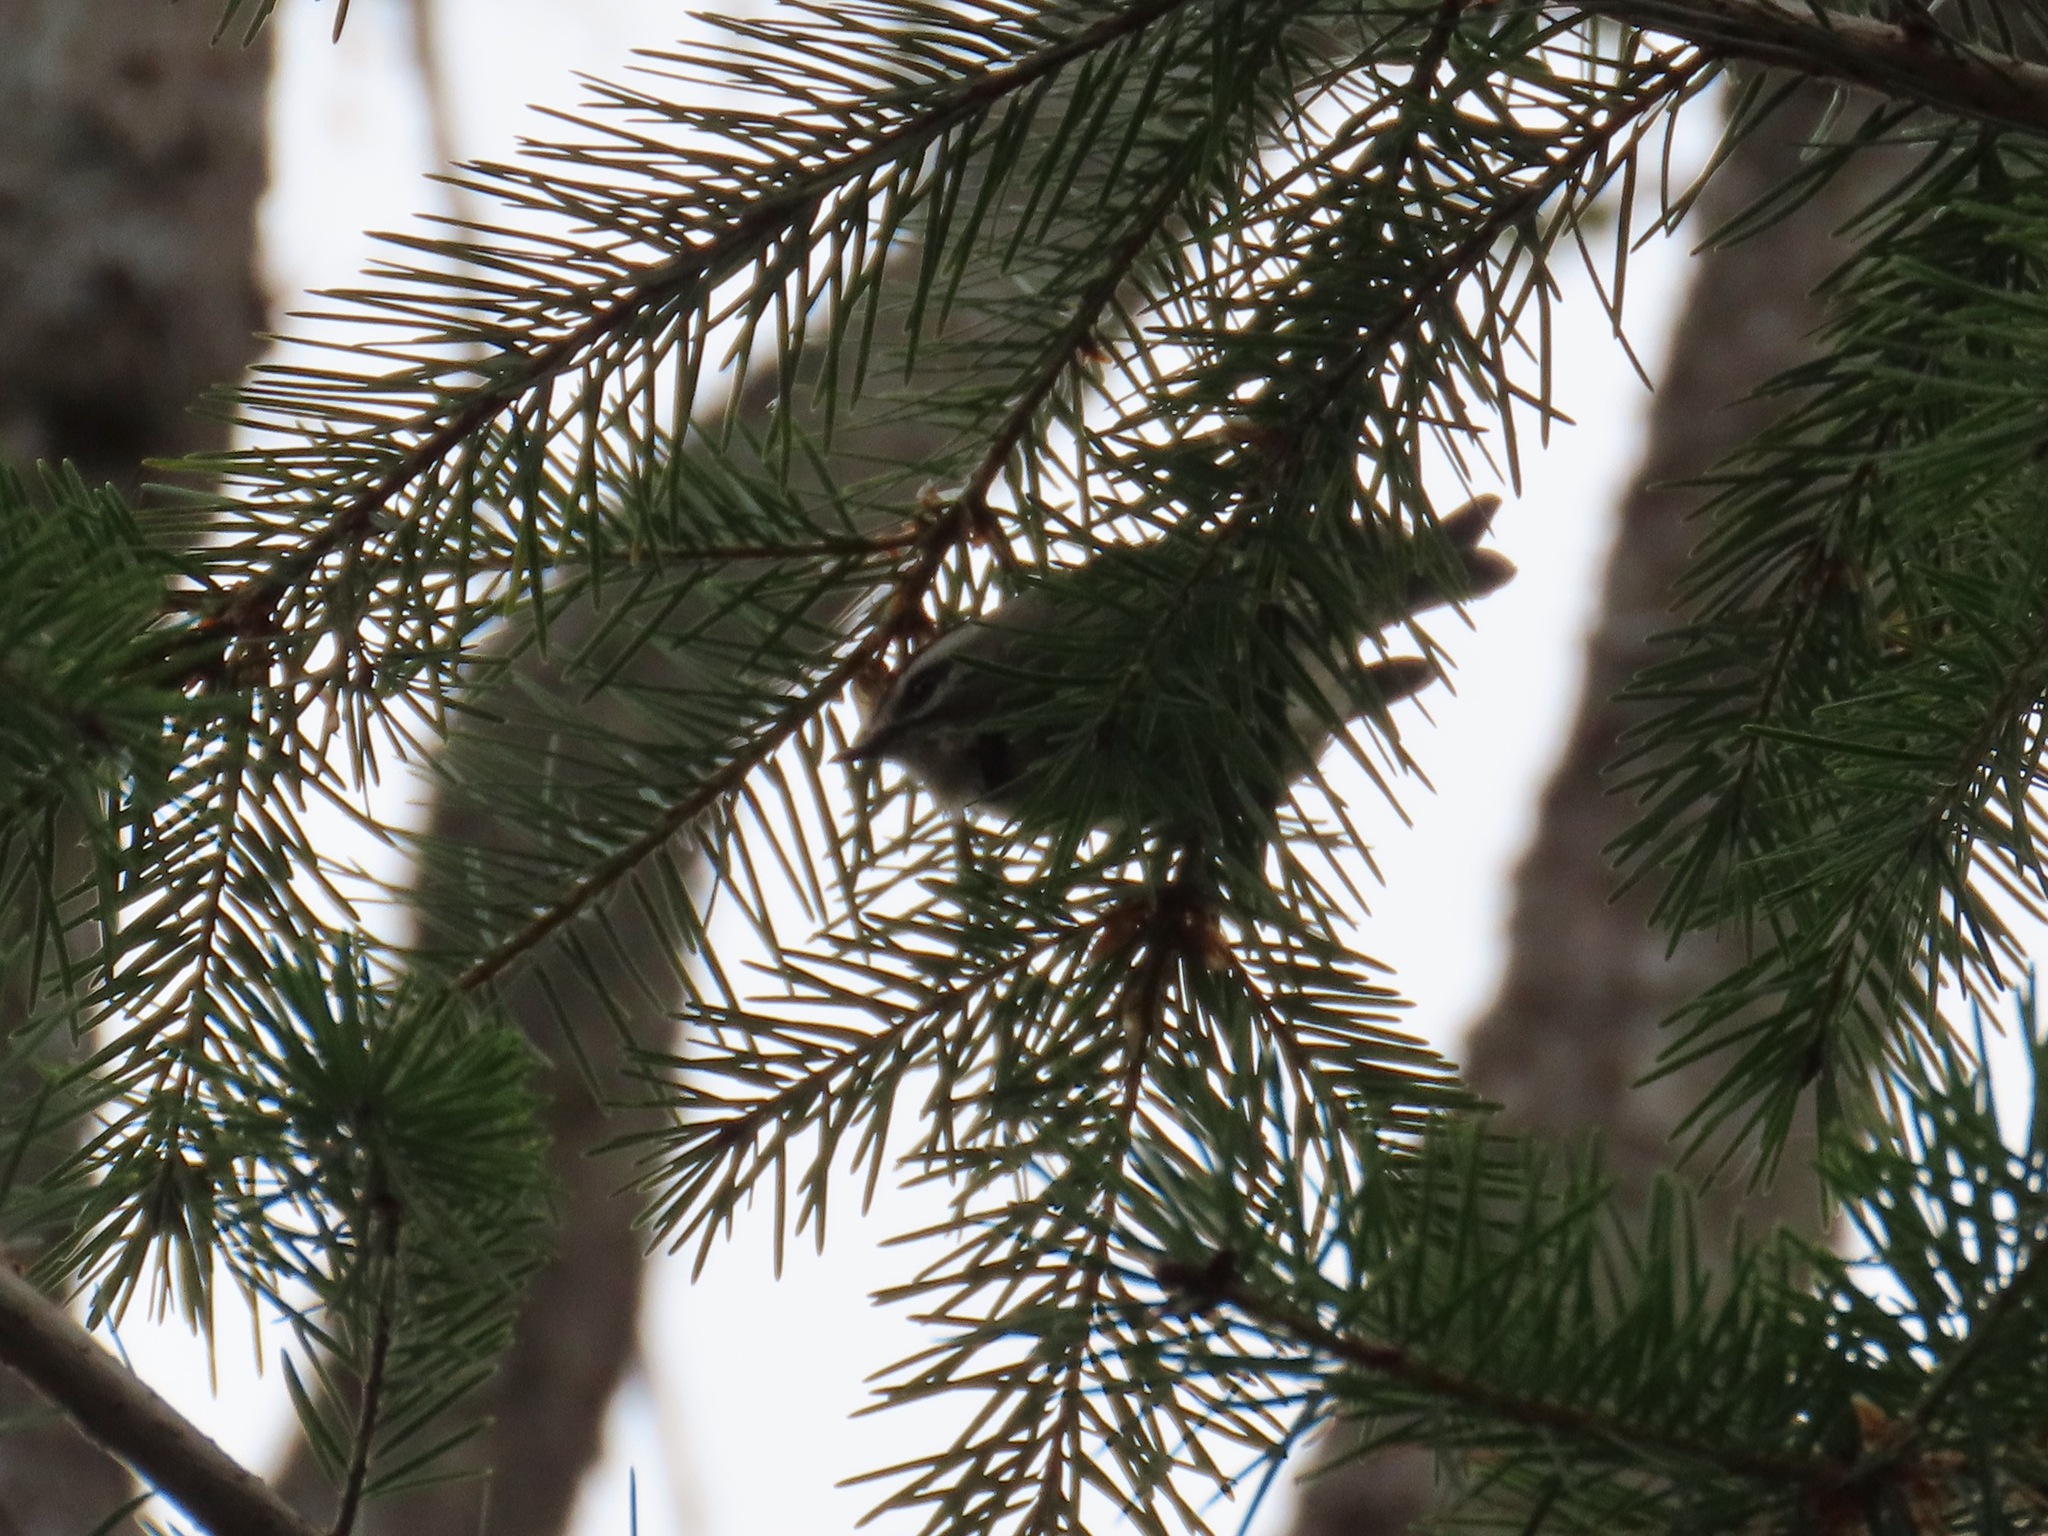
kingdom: Animalia
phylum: Chordata
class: Aves
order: Passeriformes
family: Regulidae
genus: Regulus
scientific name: Regulus satrapa
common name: Golden-crowned kinglet
